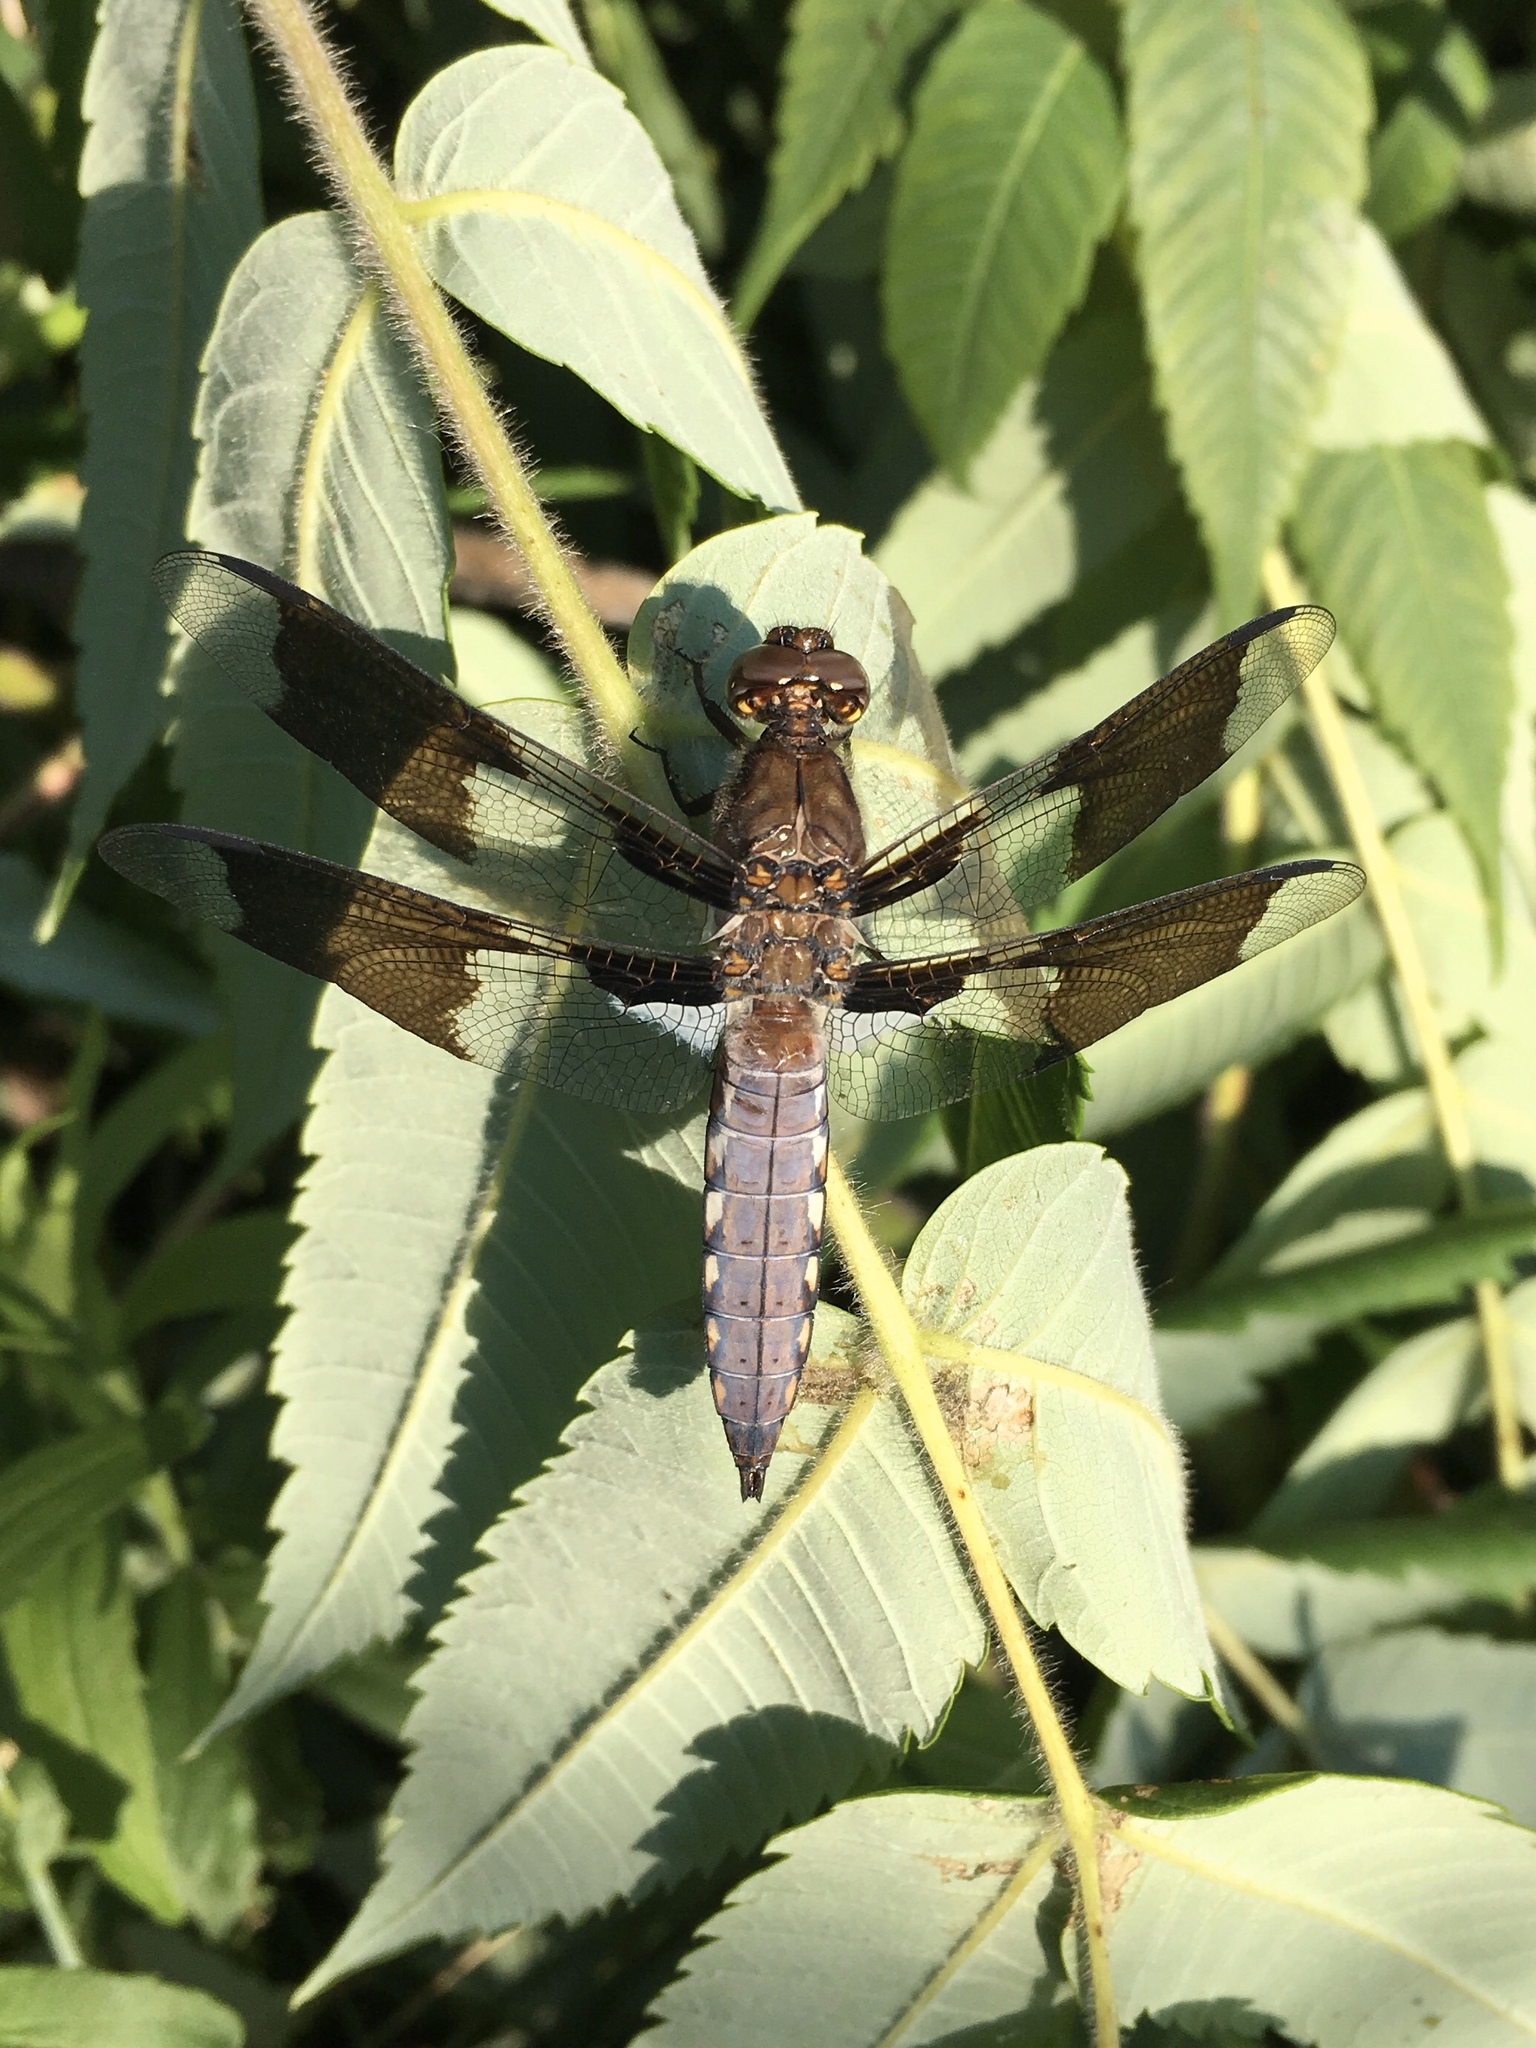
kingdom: Animalia
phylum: Arthropoda
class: Insecta
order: Odonata
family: Libellulidae
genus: Plathemis
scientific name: Plathemis lydia
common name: Common whitetail
